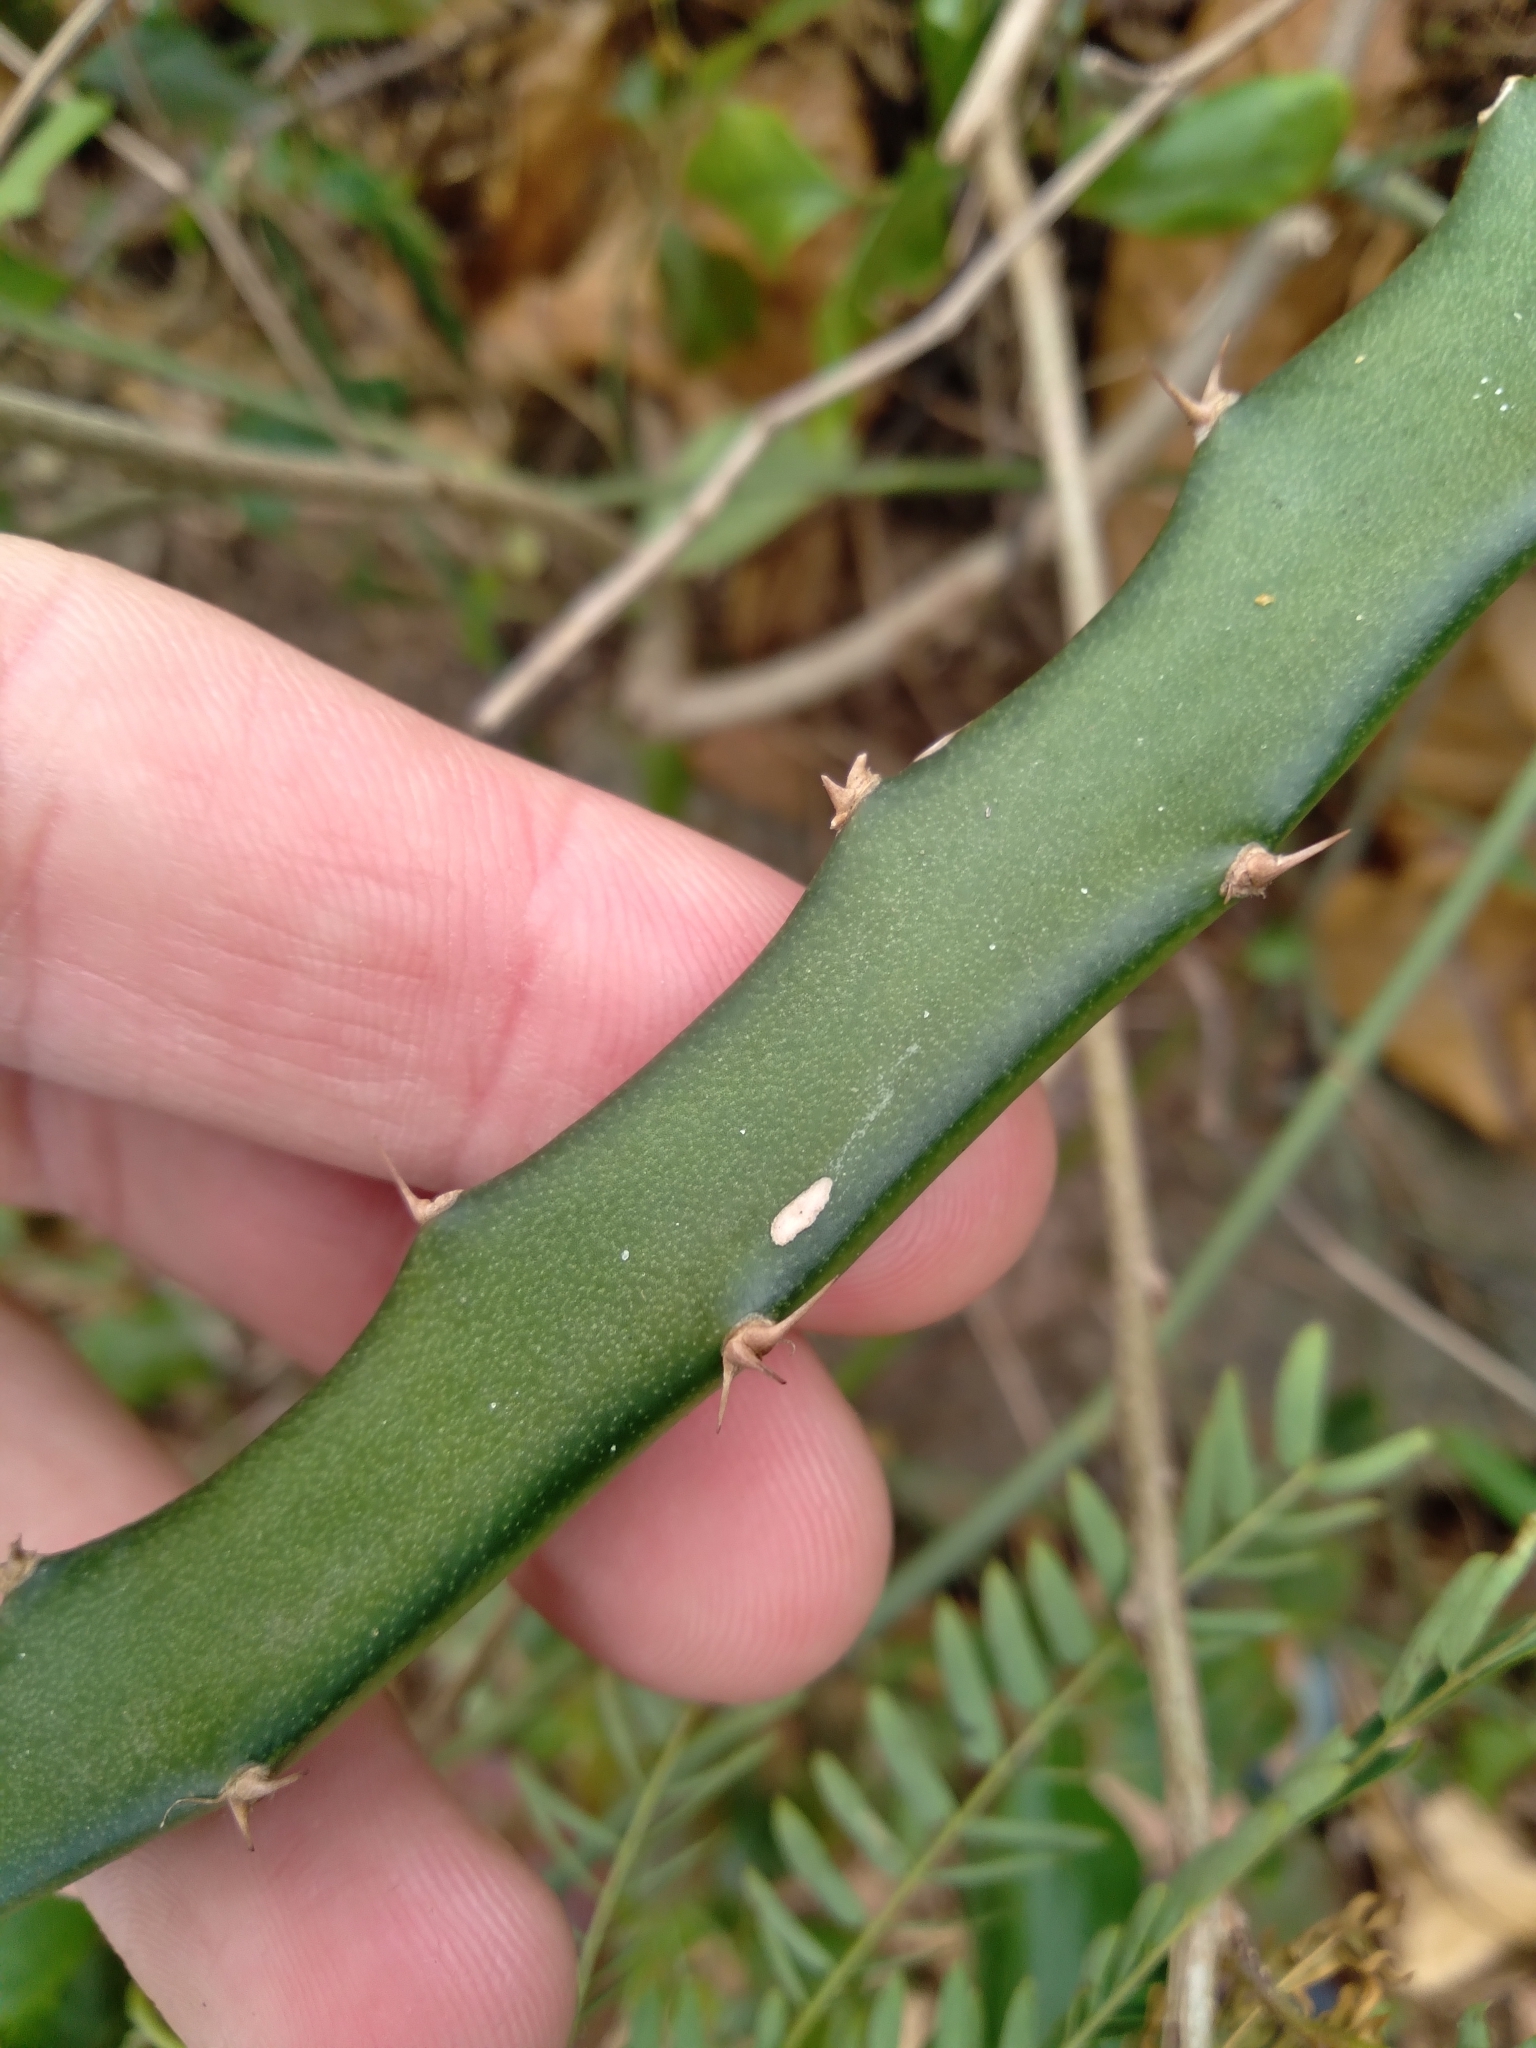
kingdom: Plantae
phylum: Tracheophyta
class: Magnoliopsida
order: Caryophyllales
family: Cactaceae
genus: Selenicereus
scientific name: Selenicereus setaceus
